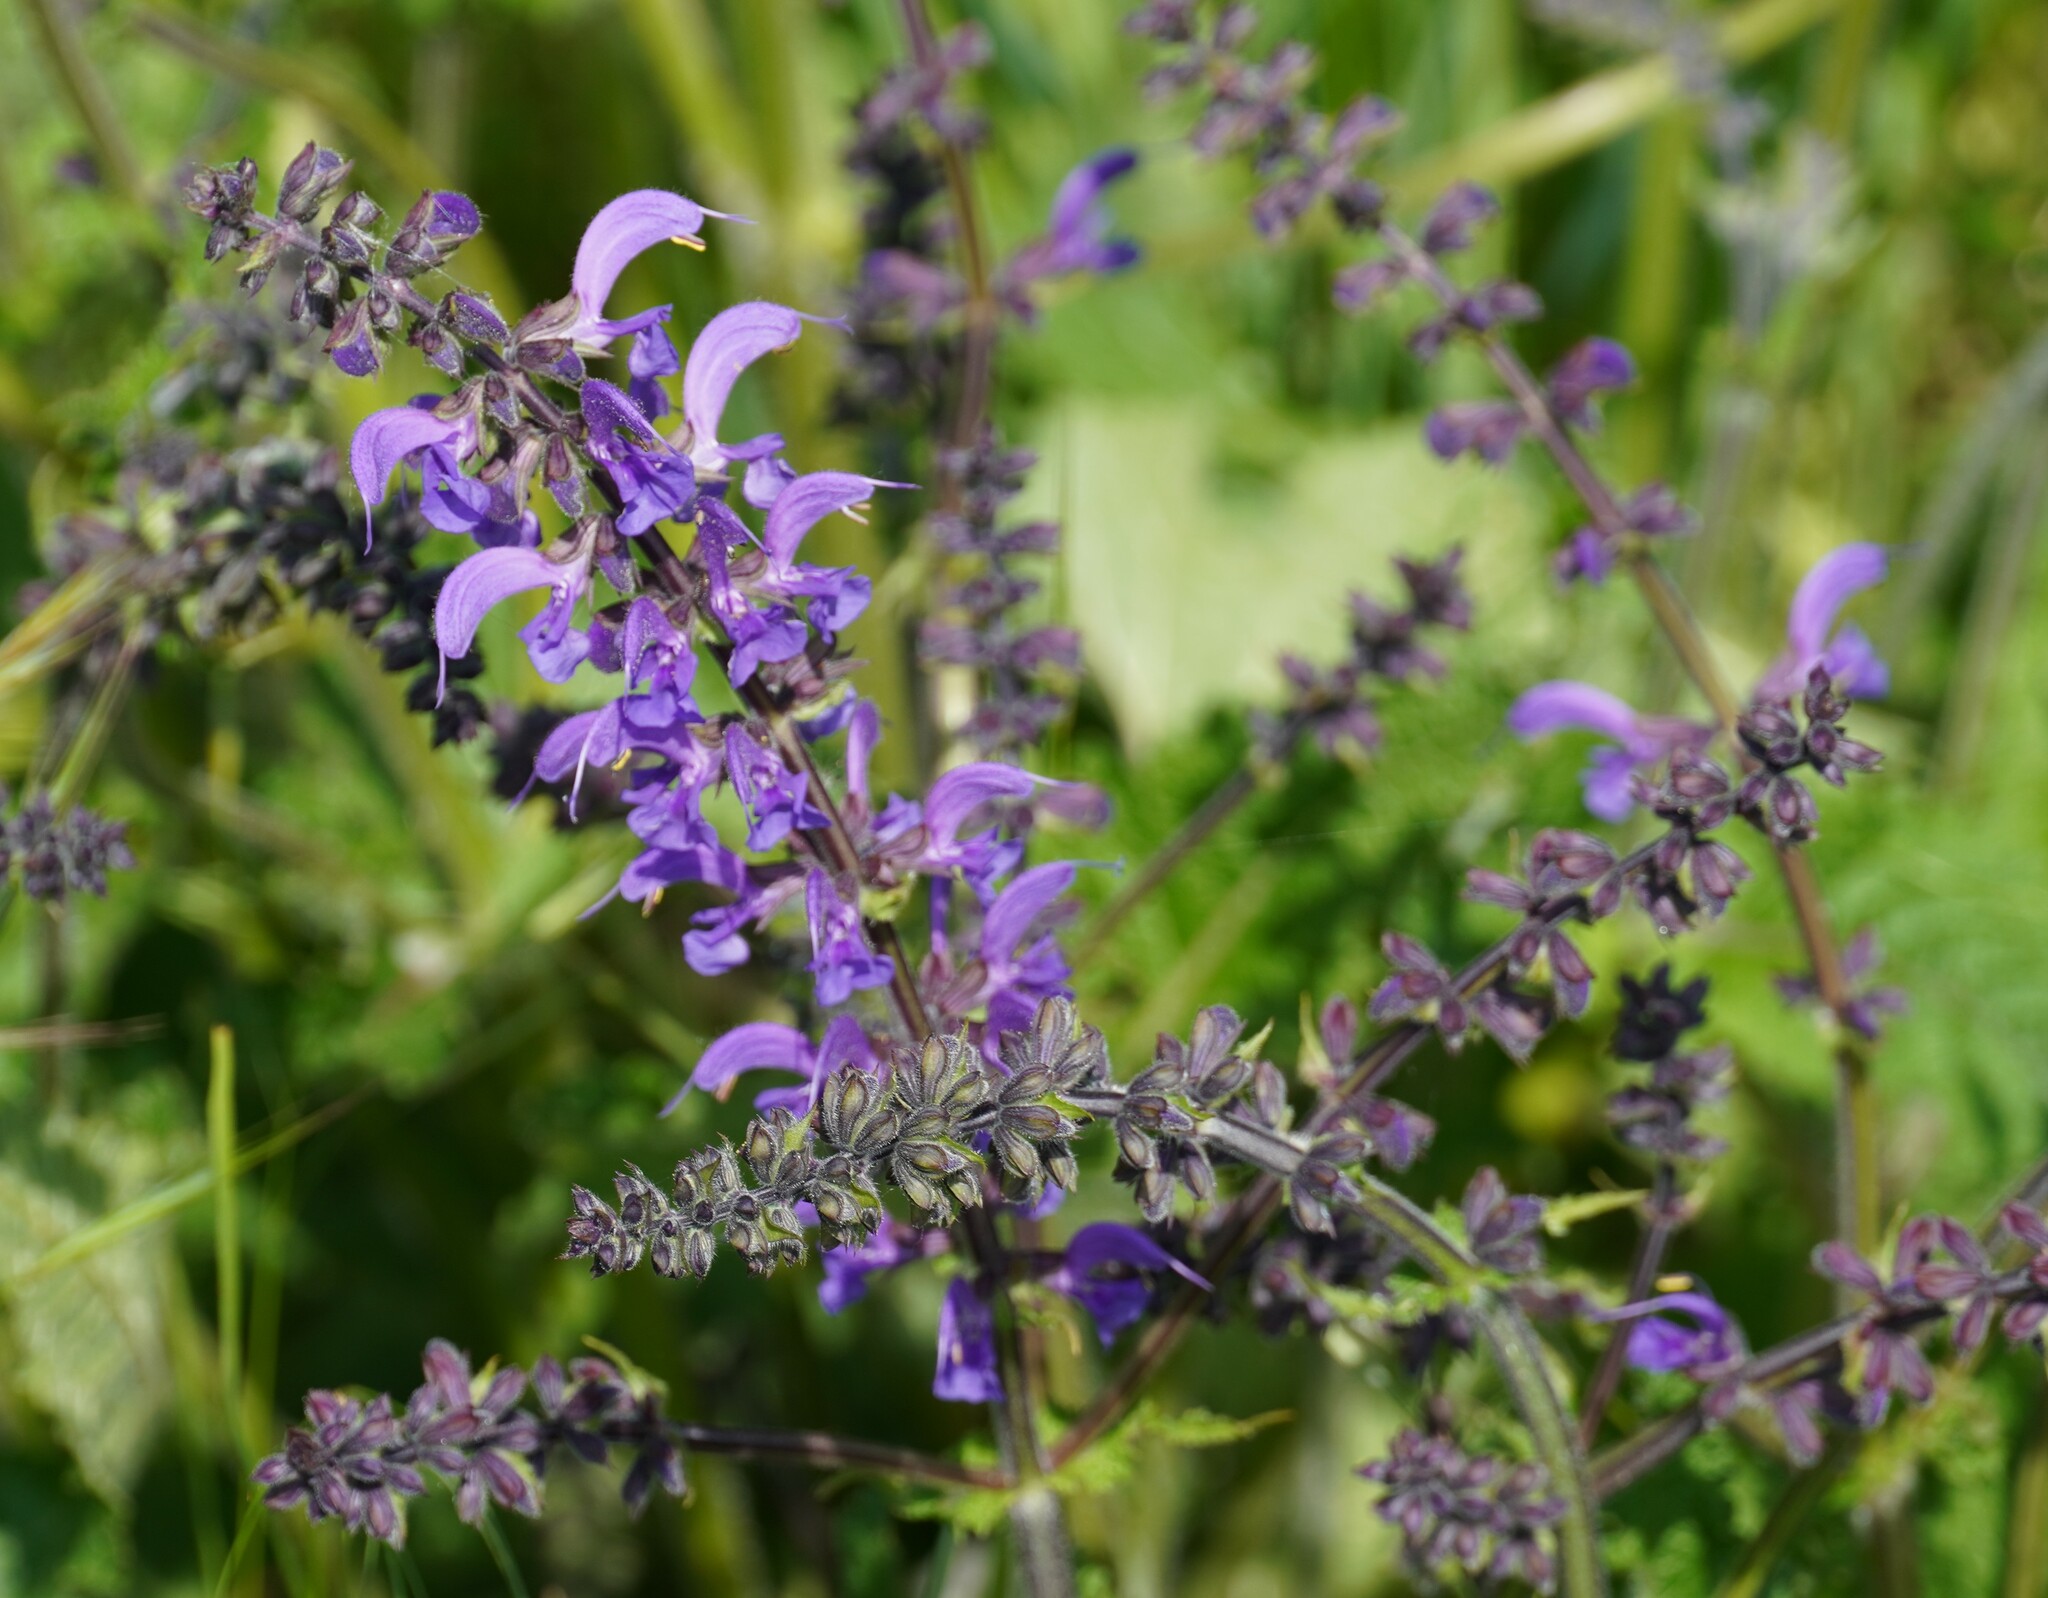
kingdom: Plantae
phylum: Tracheophyta
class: Magnoliopsida
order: Lamiales
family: Lamiaceae
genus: Salvia
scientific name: Salvia pratensis
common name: Meadow sage
